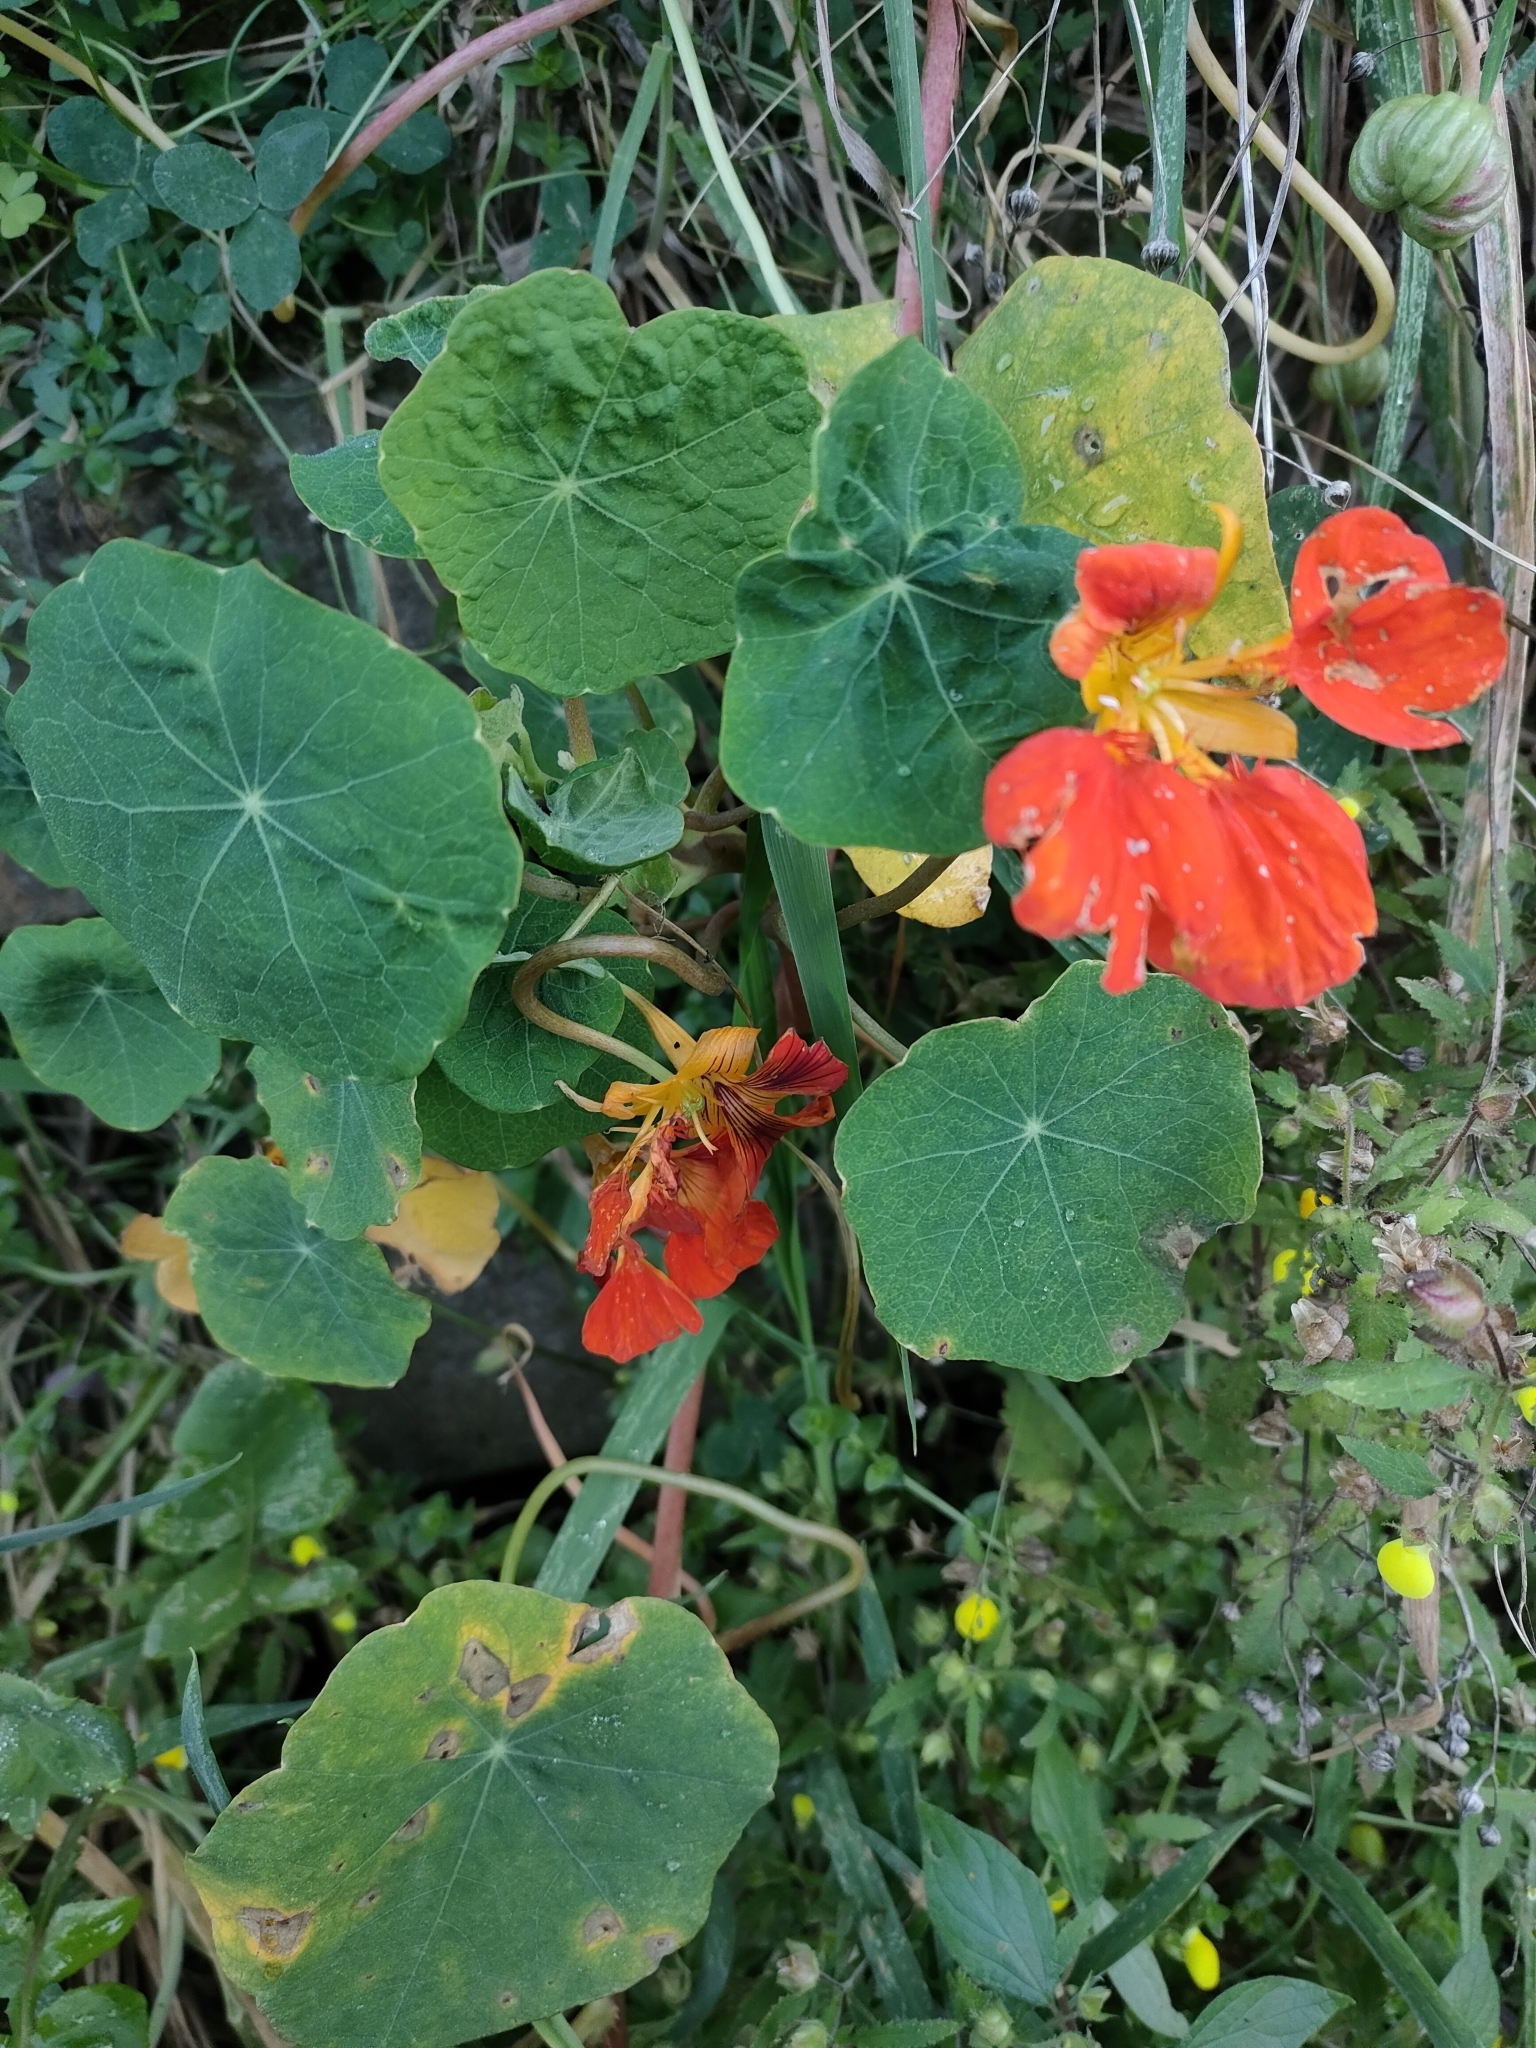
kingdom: Plantae
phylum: Tracheophyta
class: Magnoliopsida
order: Brassicales
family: Tropaeolaceae
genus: Tropaeolum
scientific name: Tropaeolum majus
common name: Nasturtium
